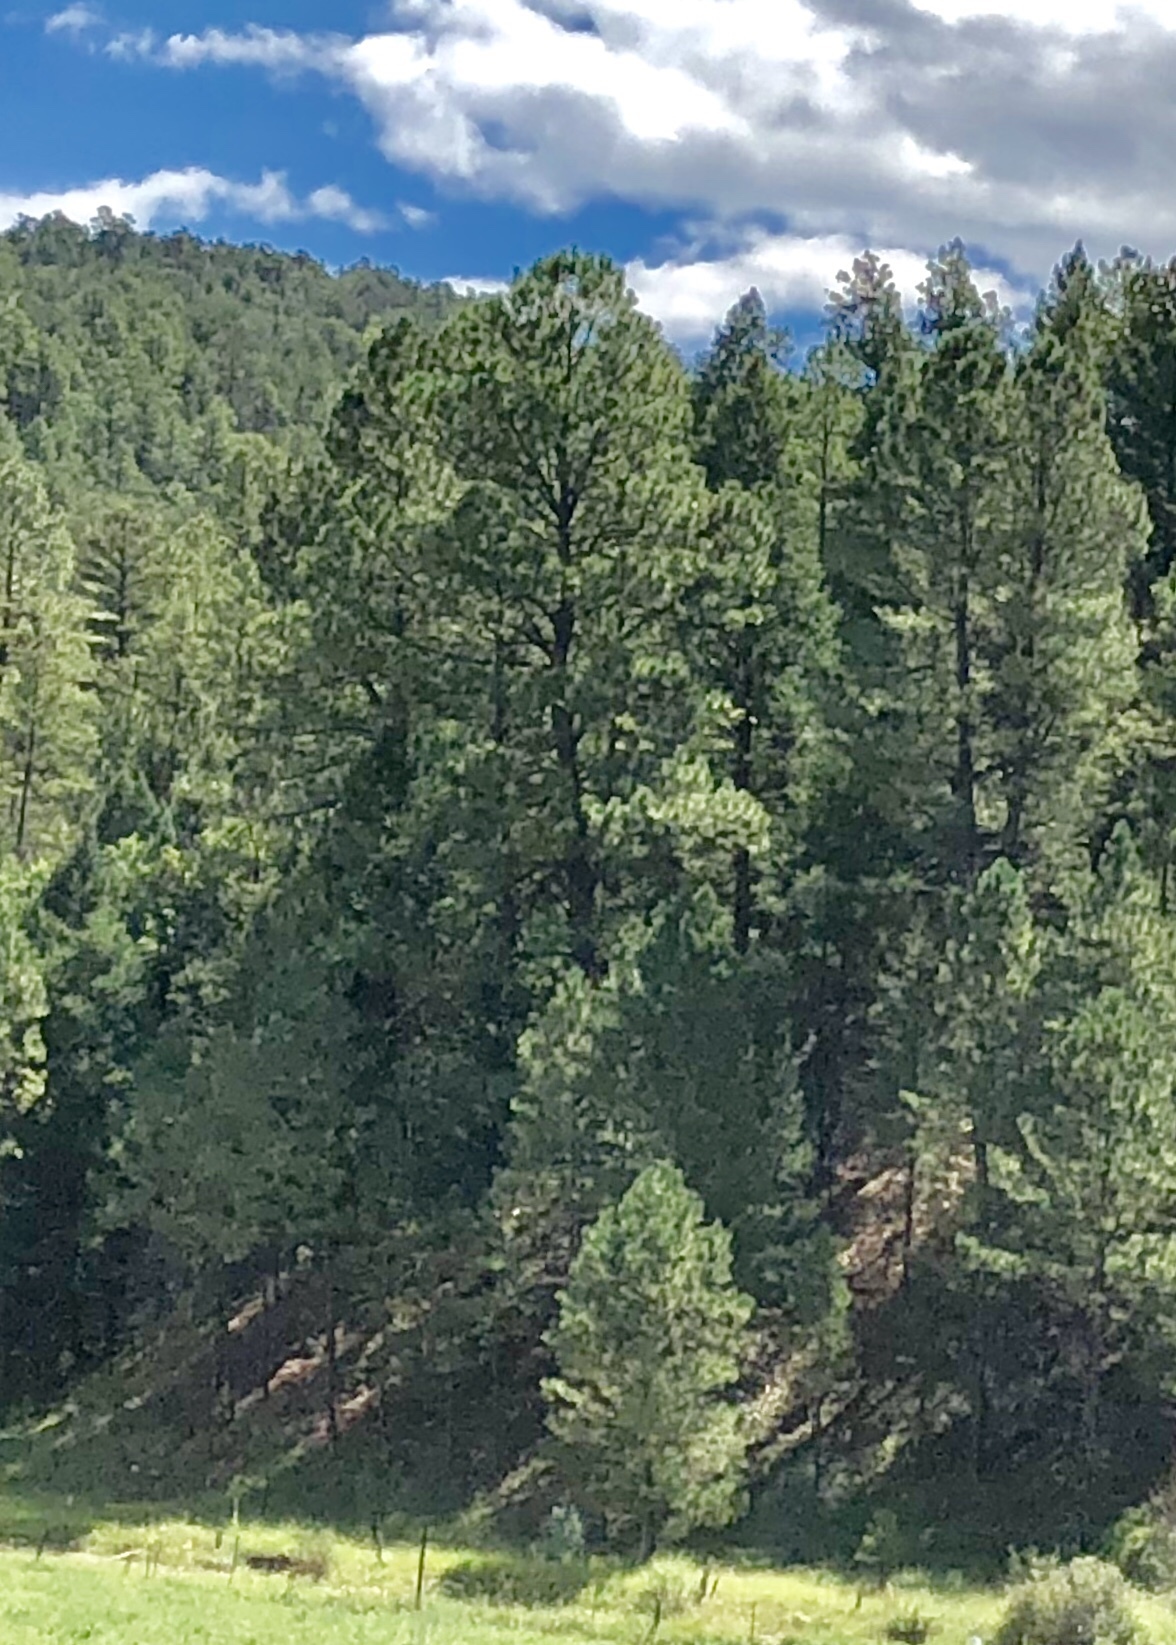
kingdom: Plantae
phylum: Tracheophyta
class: Pinopsida
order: Pinales
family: Pinaceae
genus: Pinus
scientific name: Pinus ponderosa
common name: Western yellow-pine
